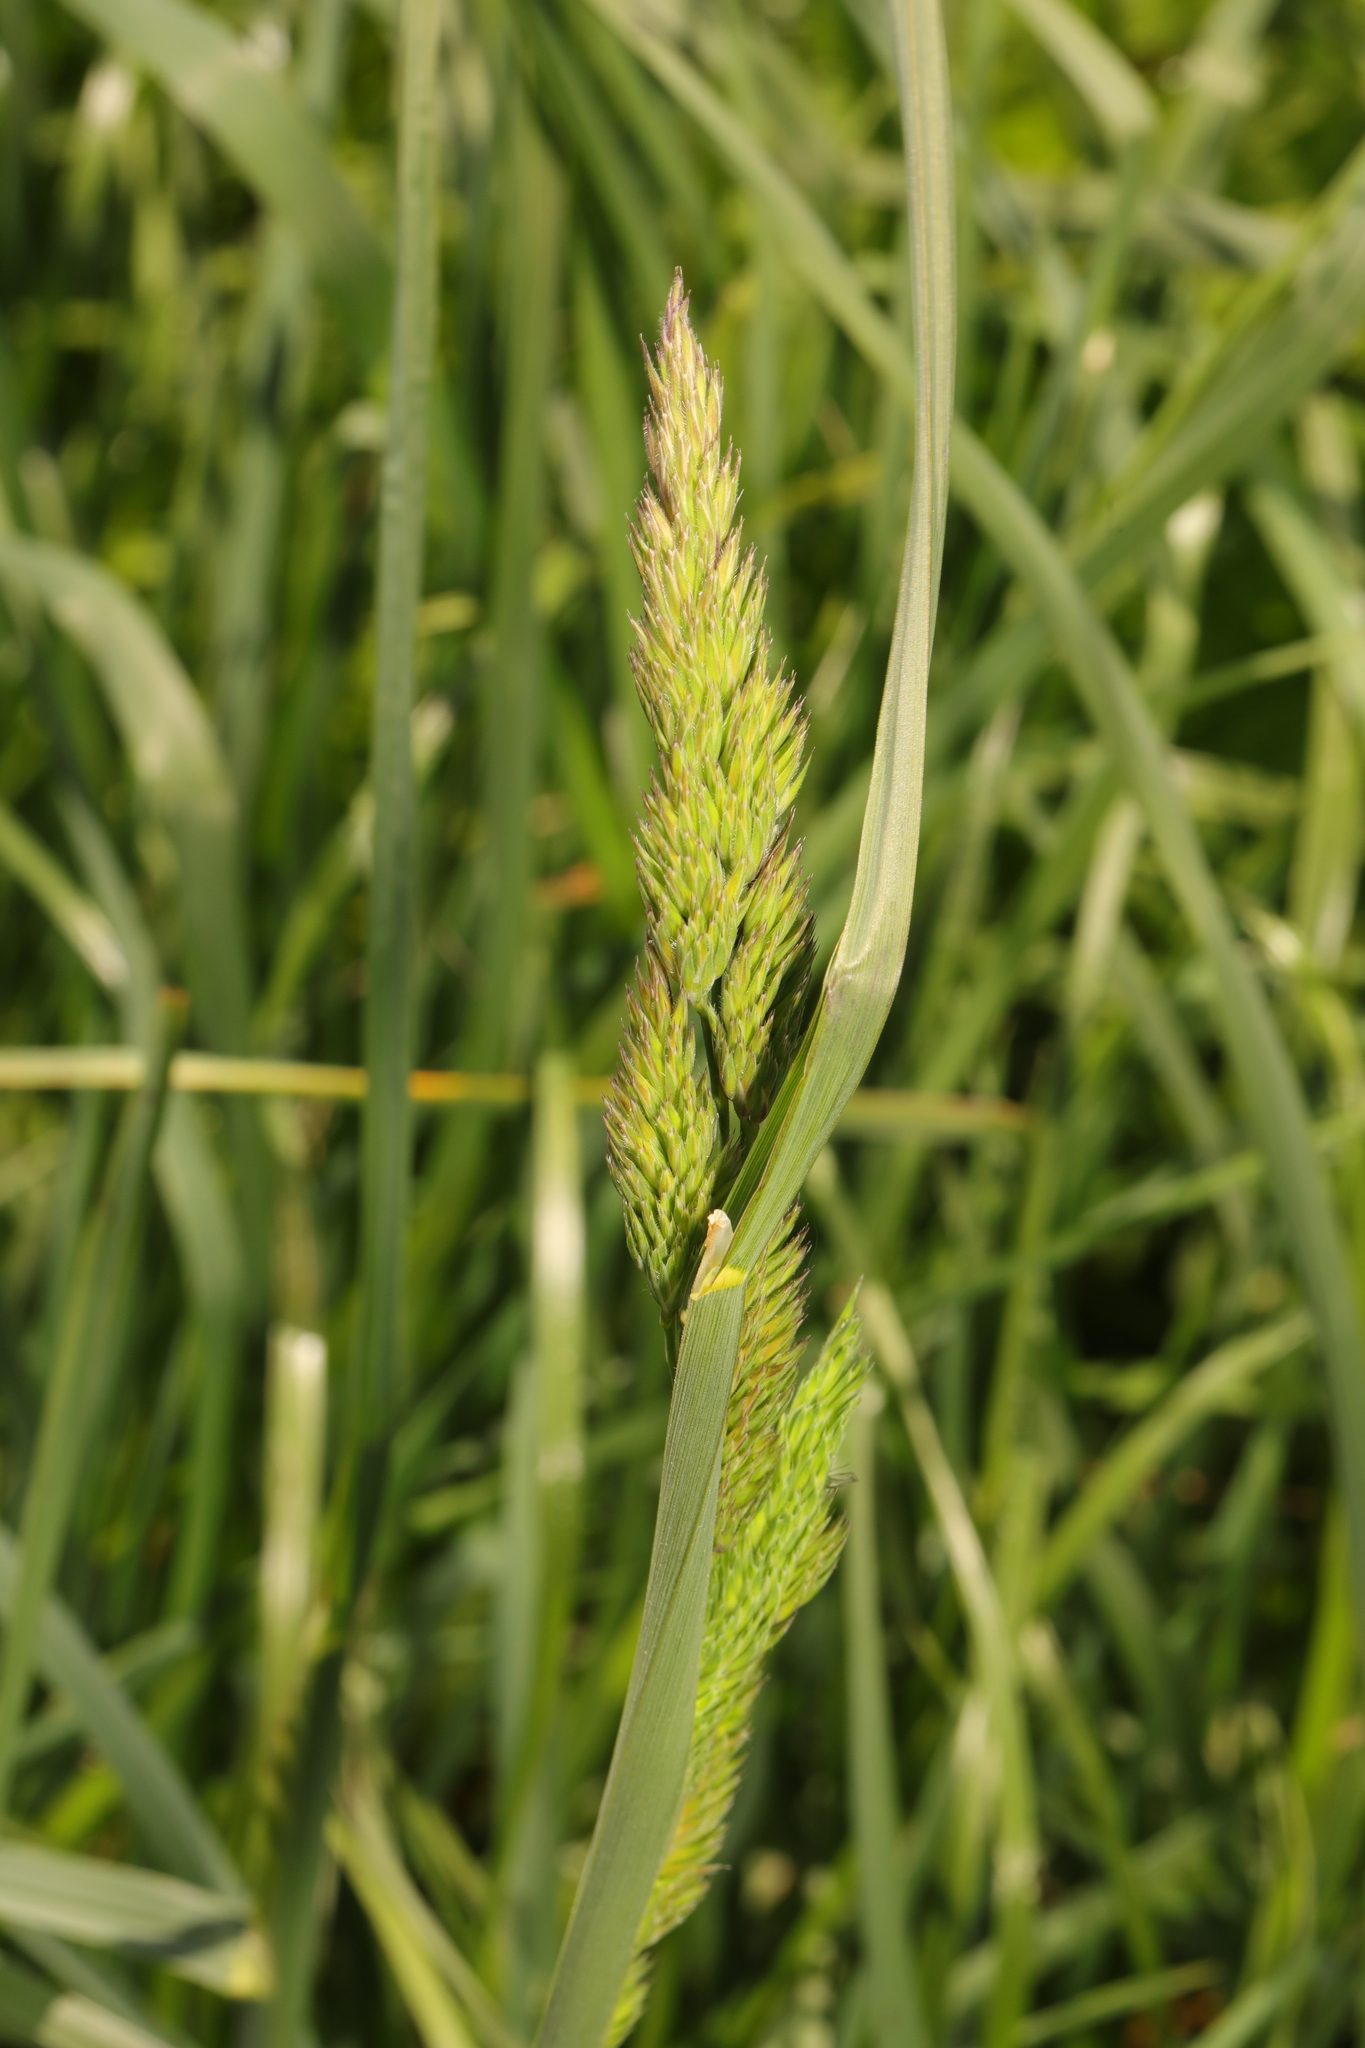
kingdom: Plantae
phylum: Tracheophyta
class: Liliopsida
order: Poales
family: Poaceae
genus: Dactylis
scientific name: Dactylis glomerata
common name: Orchardgrass
